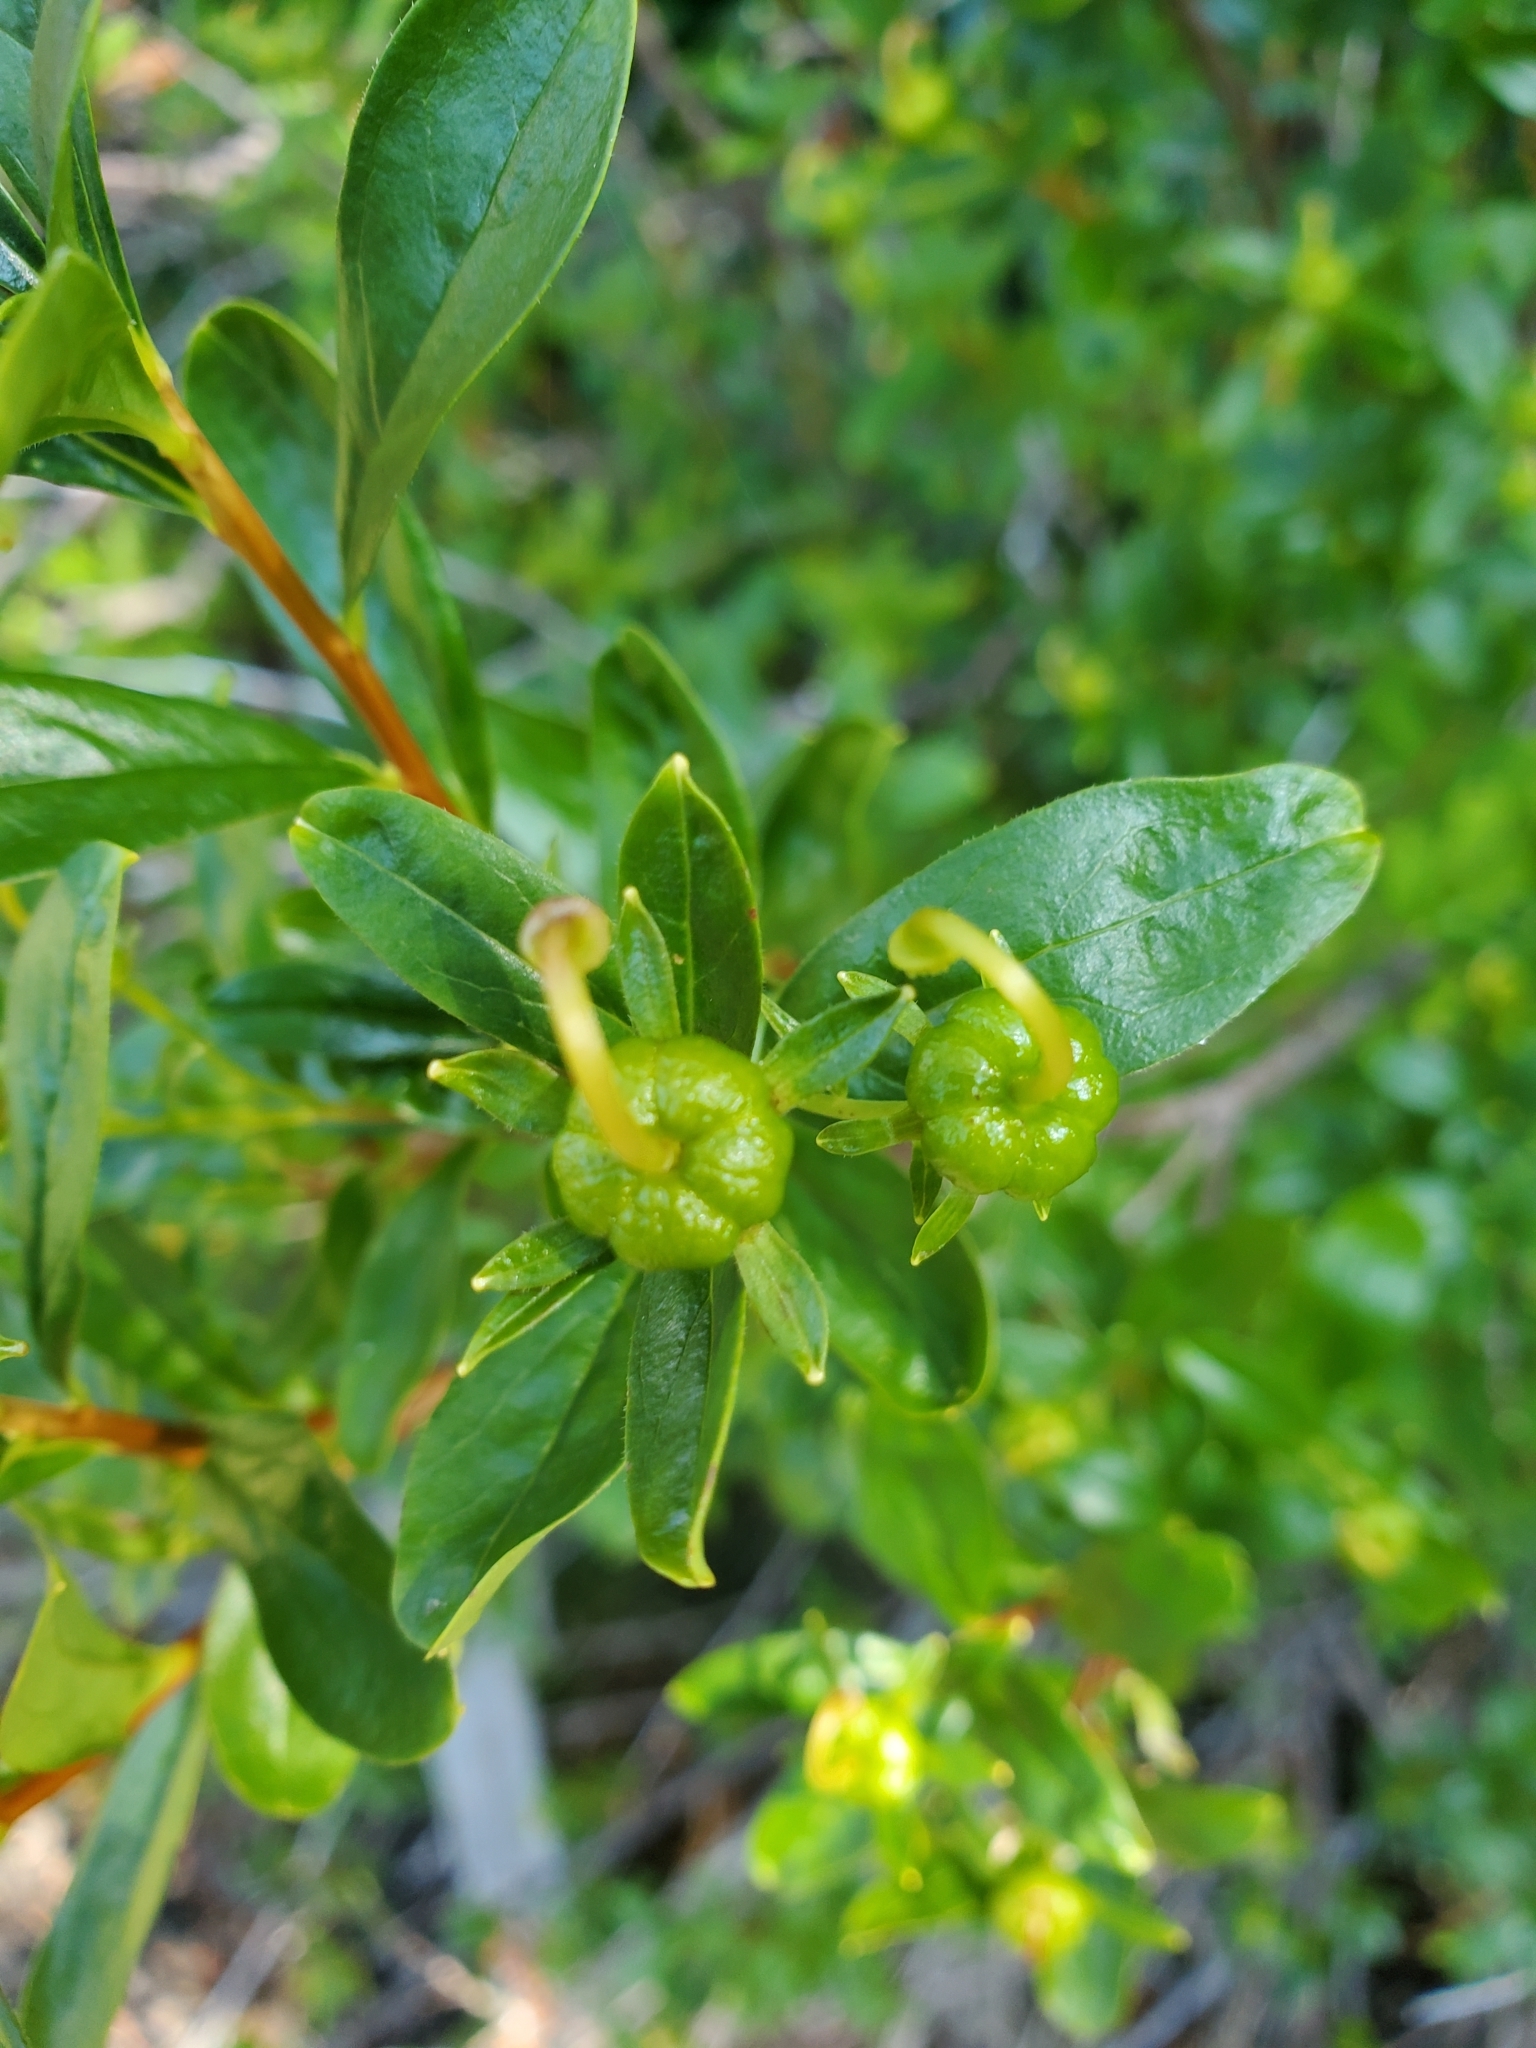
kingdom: Plantae
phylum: Tracheophyta
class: Magnoliopsida
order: Ericales
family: Ericaceae
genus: Elliottia
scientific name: Elliottia pyroliflora
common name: Copperbush
